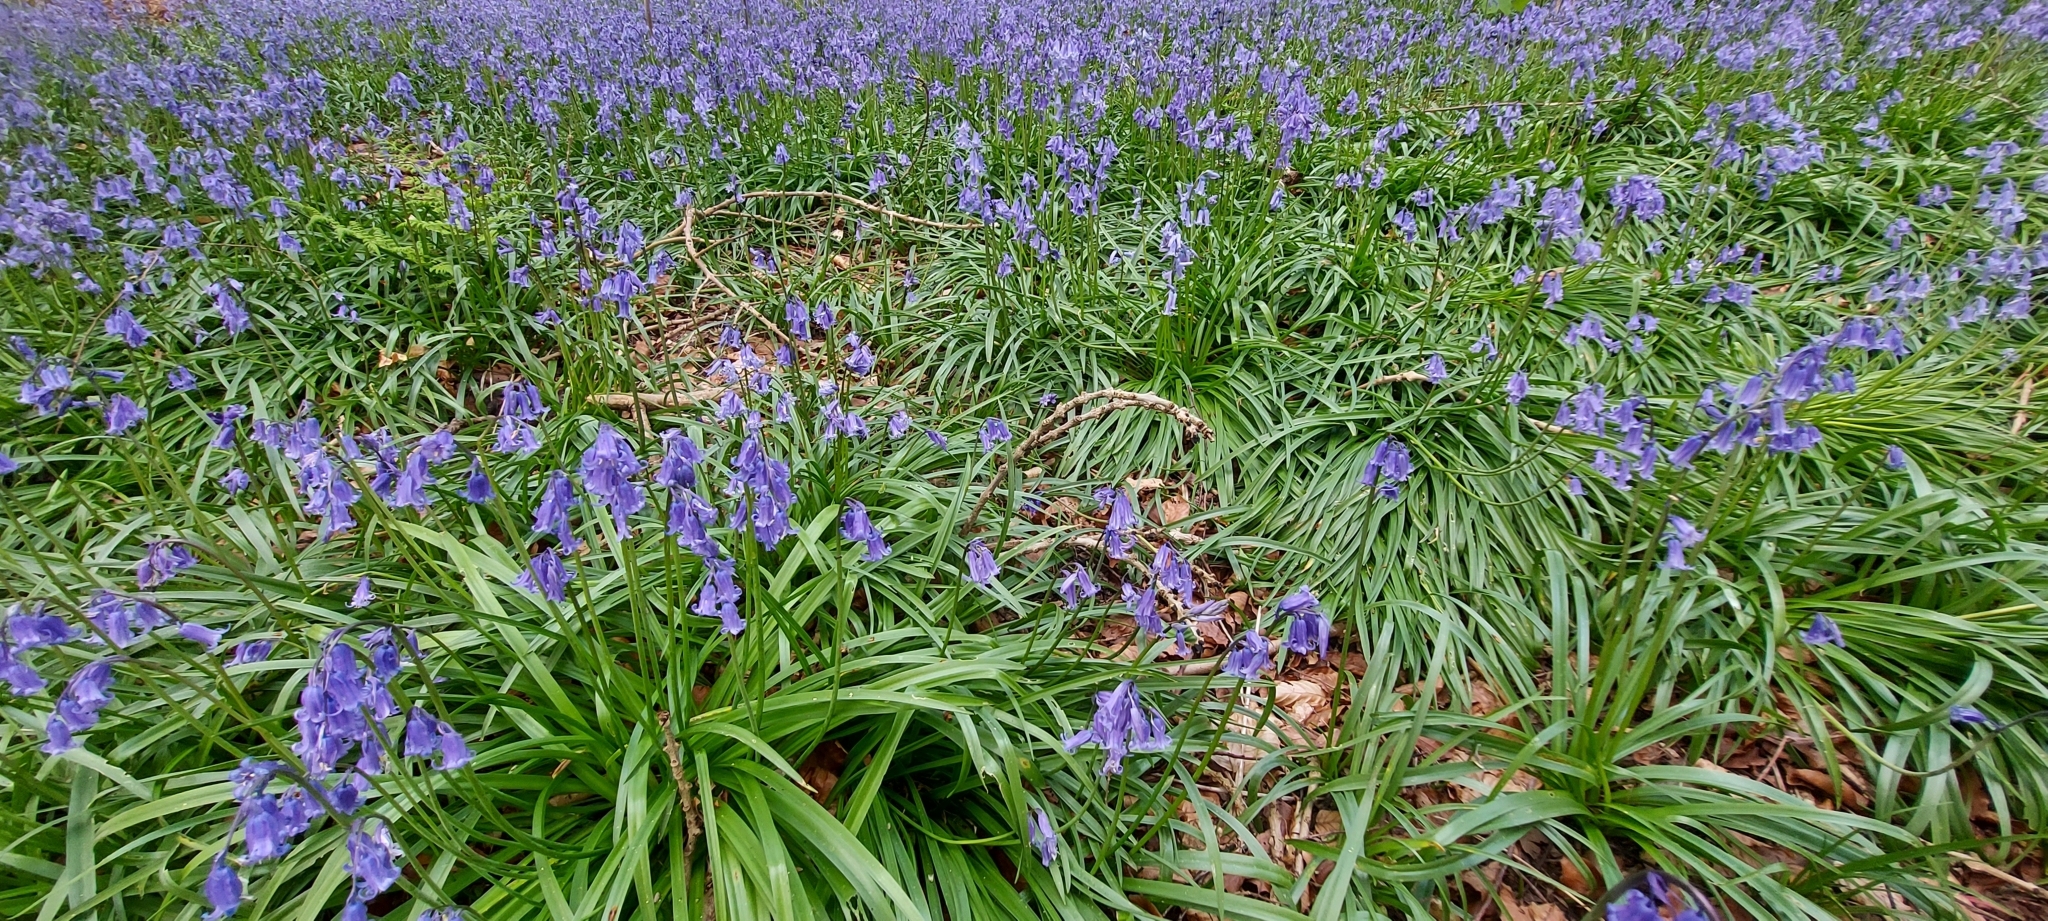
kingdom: Plantae
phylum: Tracheophyta
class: Liliopsida
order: Asparagales
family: Asparagaceae
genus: Hyacinthoides
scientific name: Hyacinthoides non-scripta
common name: Bluebell
